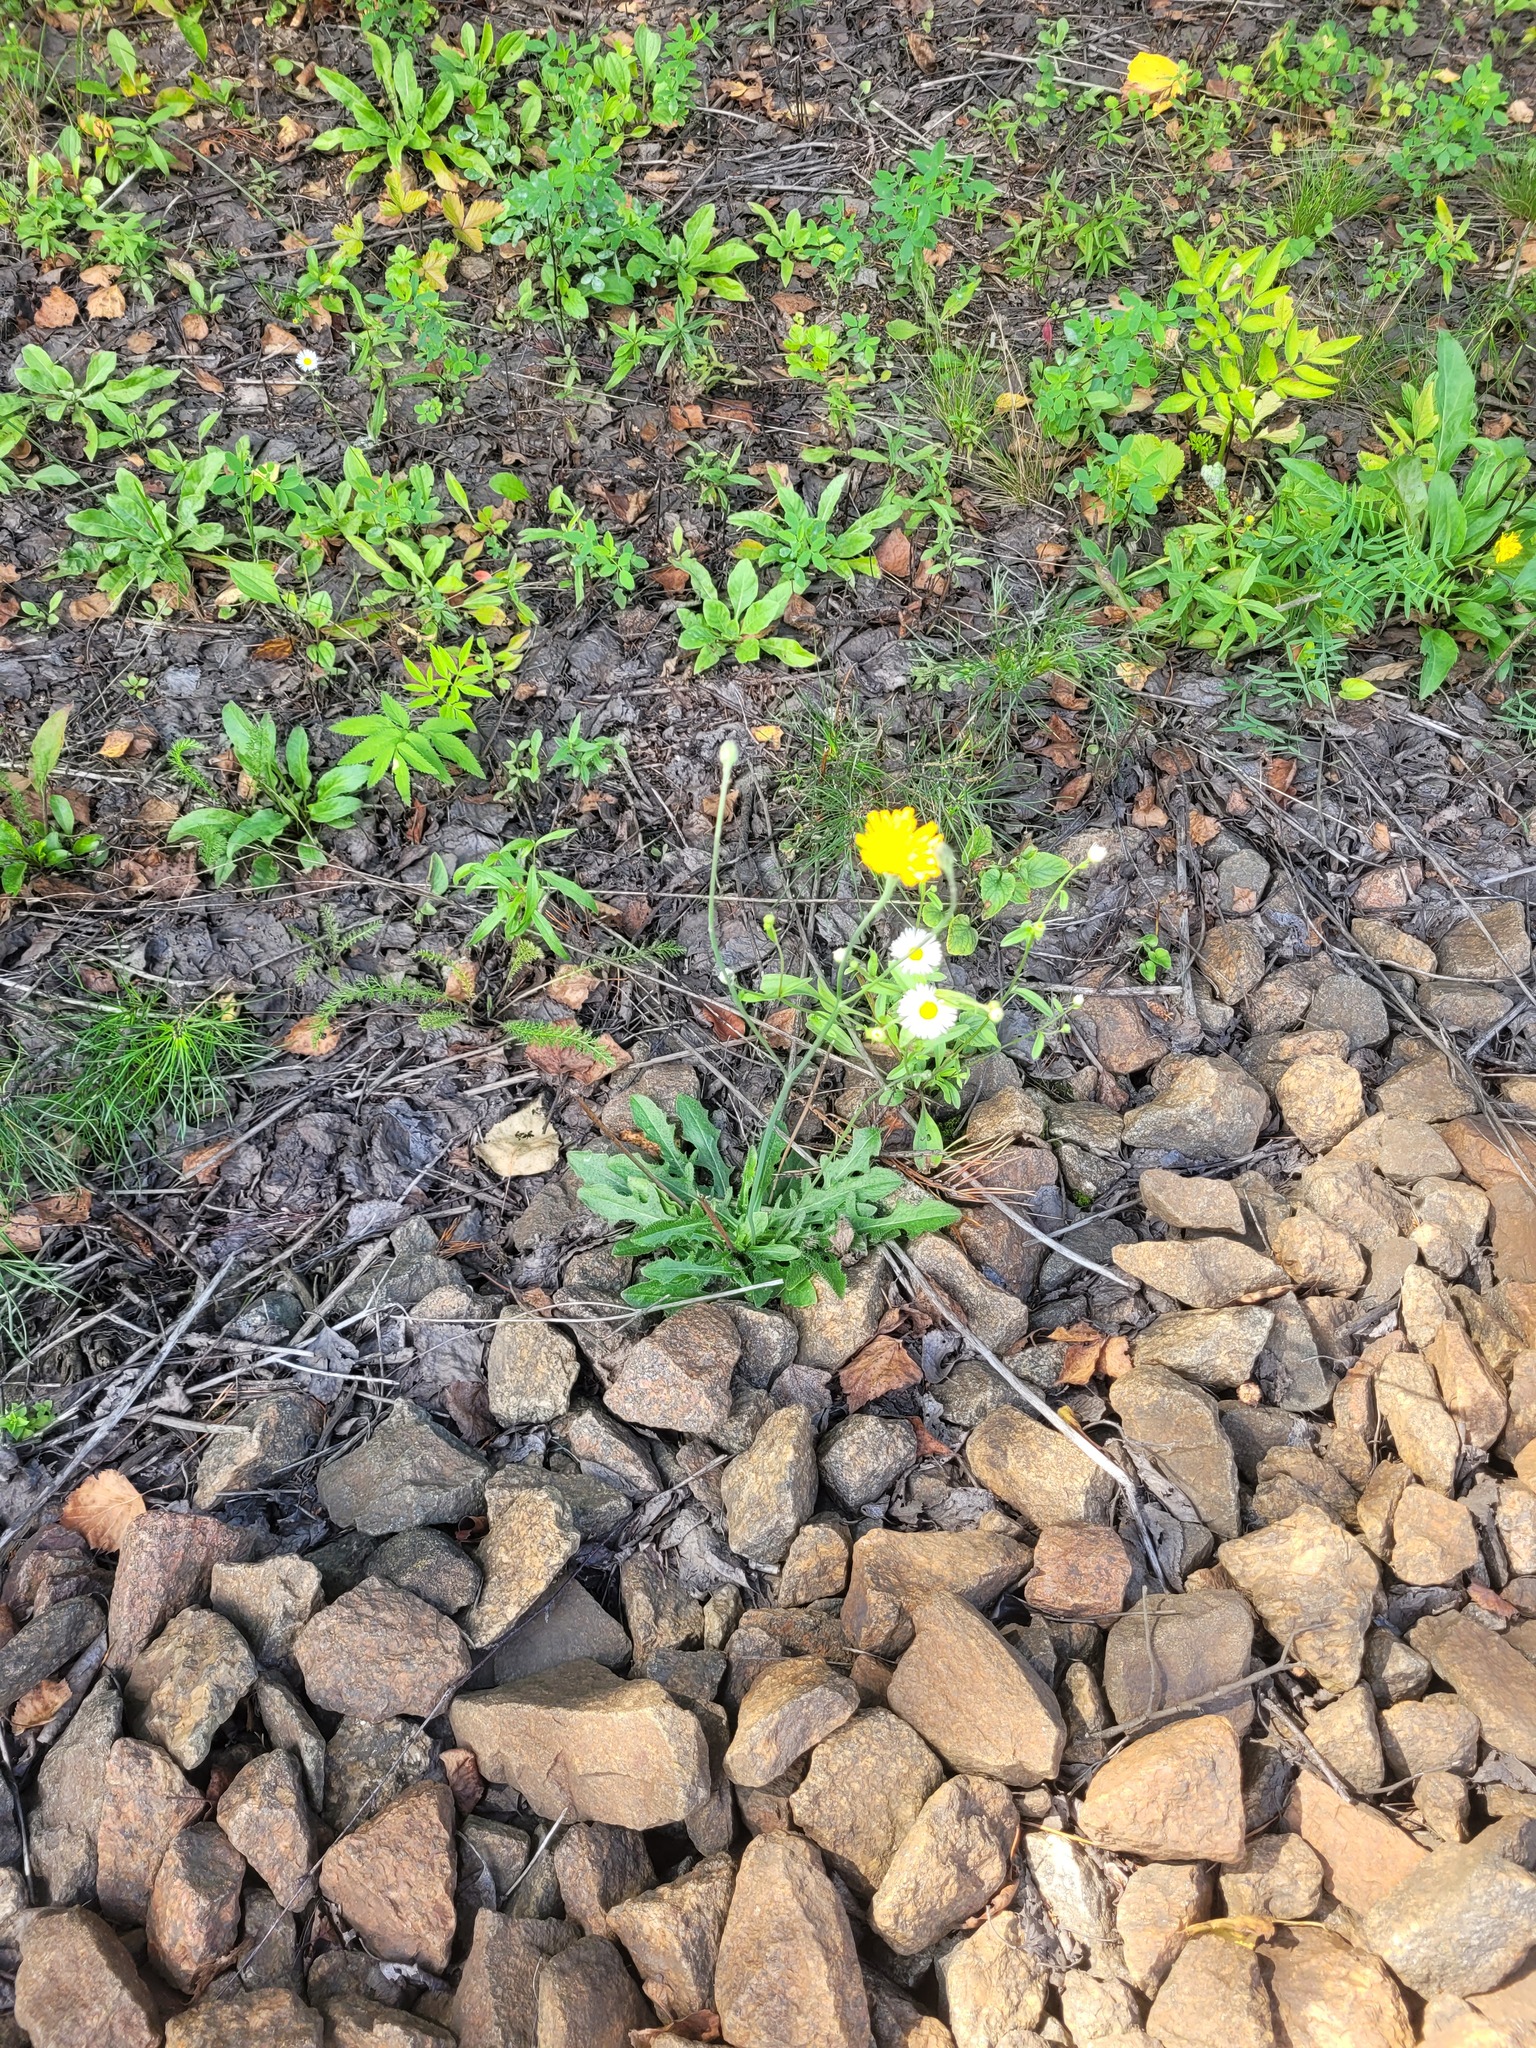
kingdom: Plantae
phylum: Tracheophyta
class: Magnoliopsida
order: Asterales
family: Asteraceae
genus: Hypochaeris
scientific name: Hypochaeris radicata
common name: Flatweed
